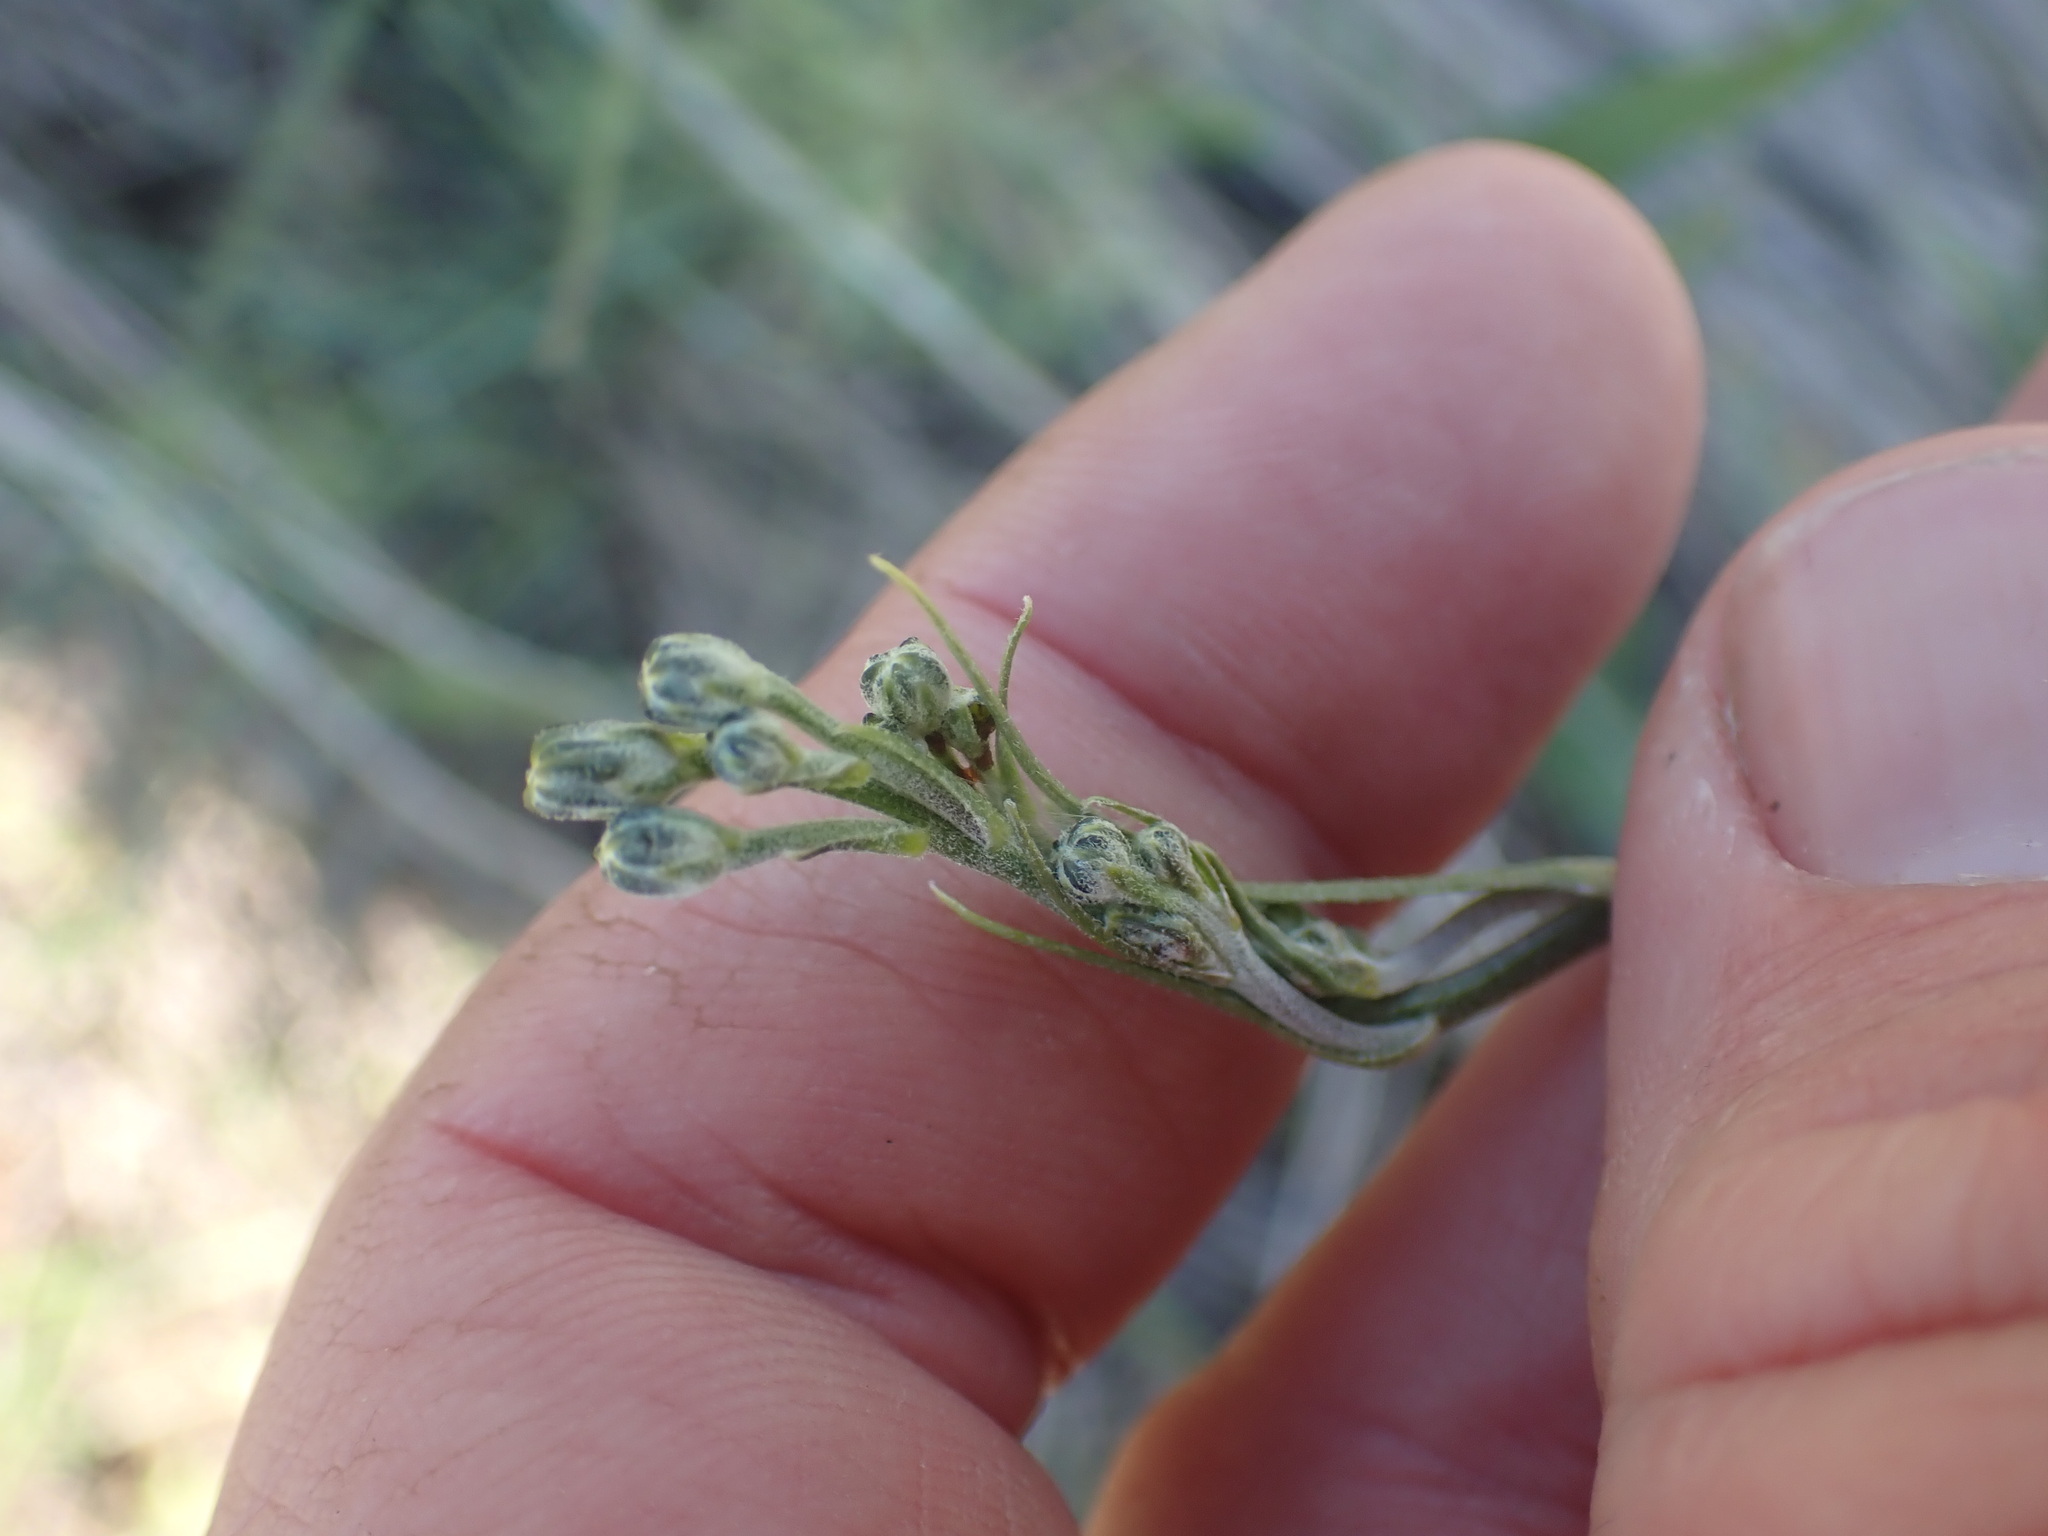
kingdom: Plantae
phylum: Tracheophyta
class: Magnoliopsida
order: Asterales
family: Asteraceae
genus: Crepis
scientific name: Crepis atribarba
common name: Dark hawk's-beard
